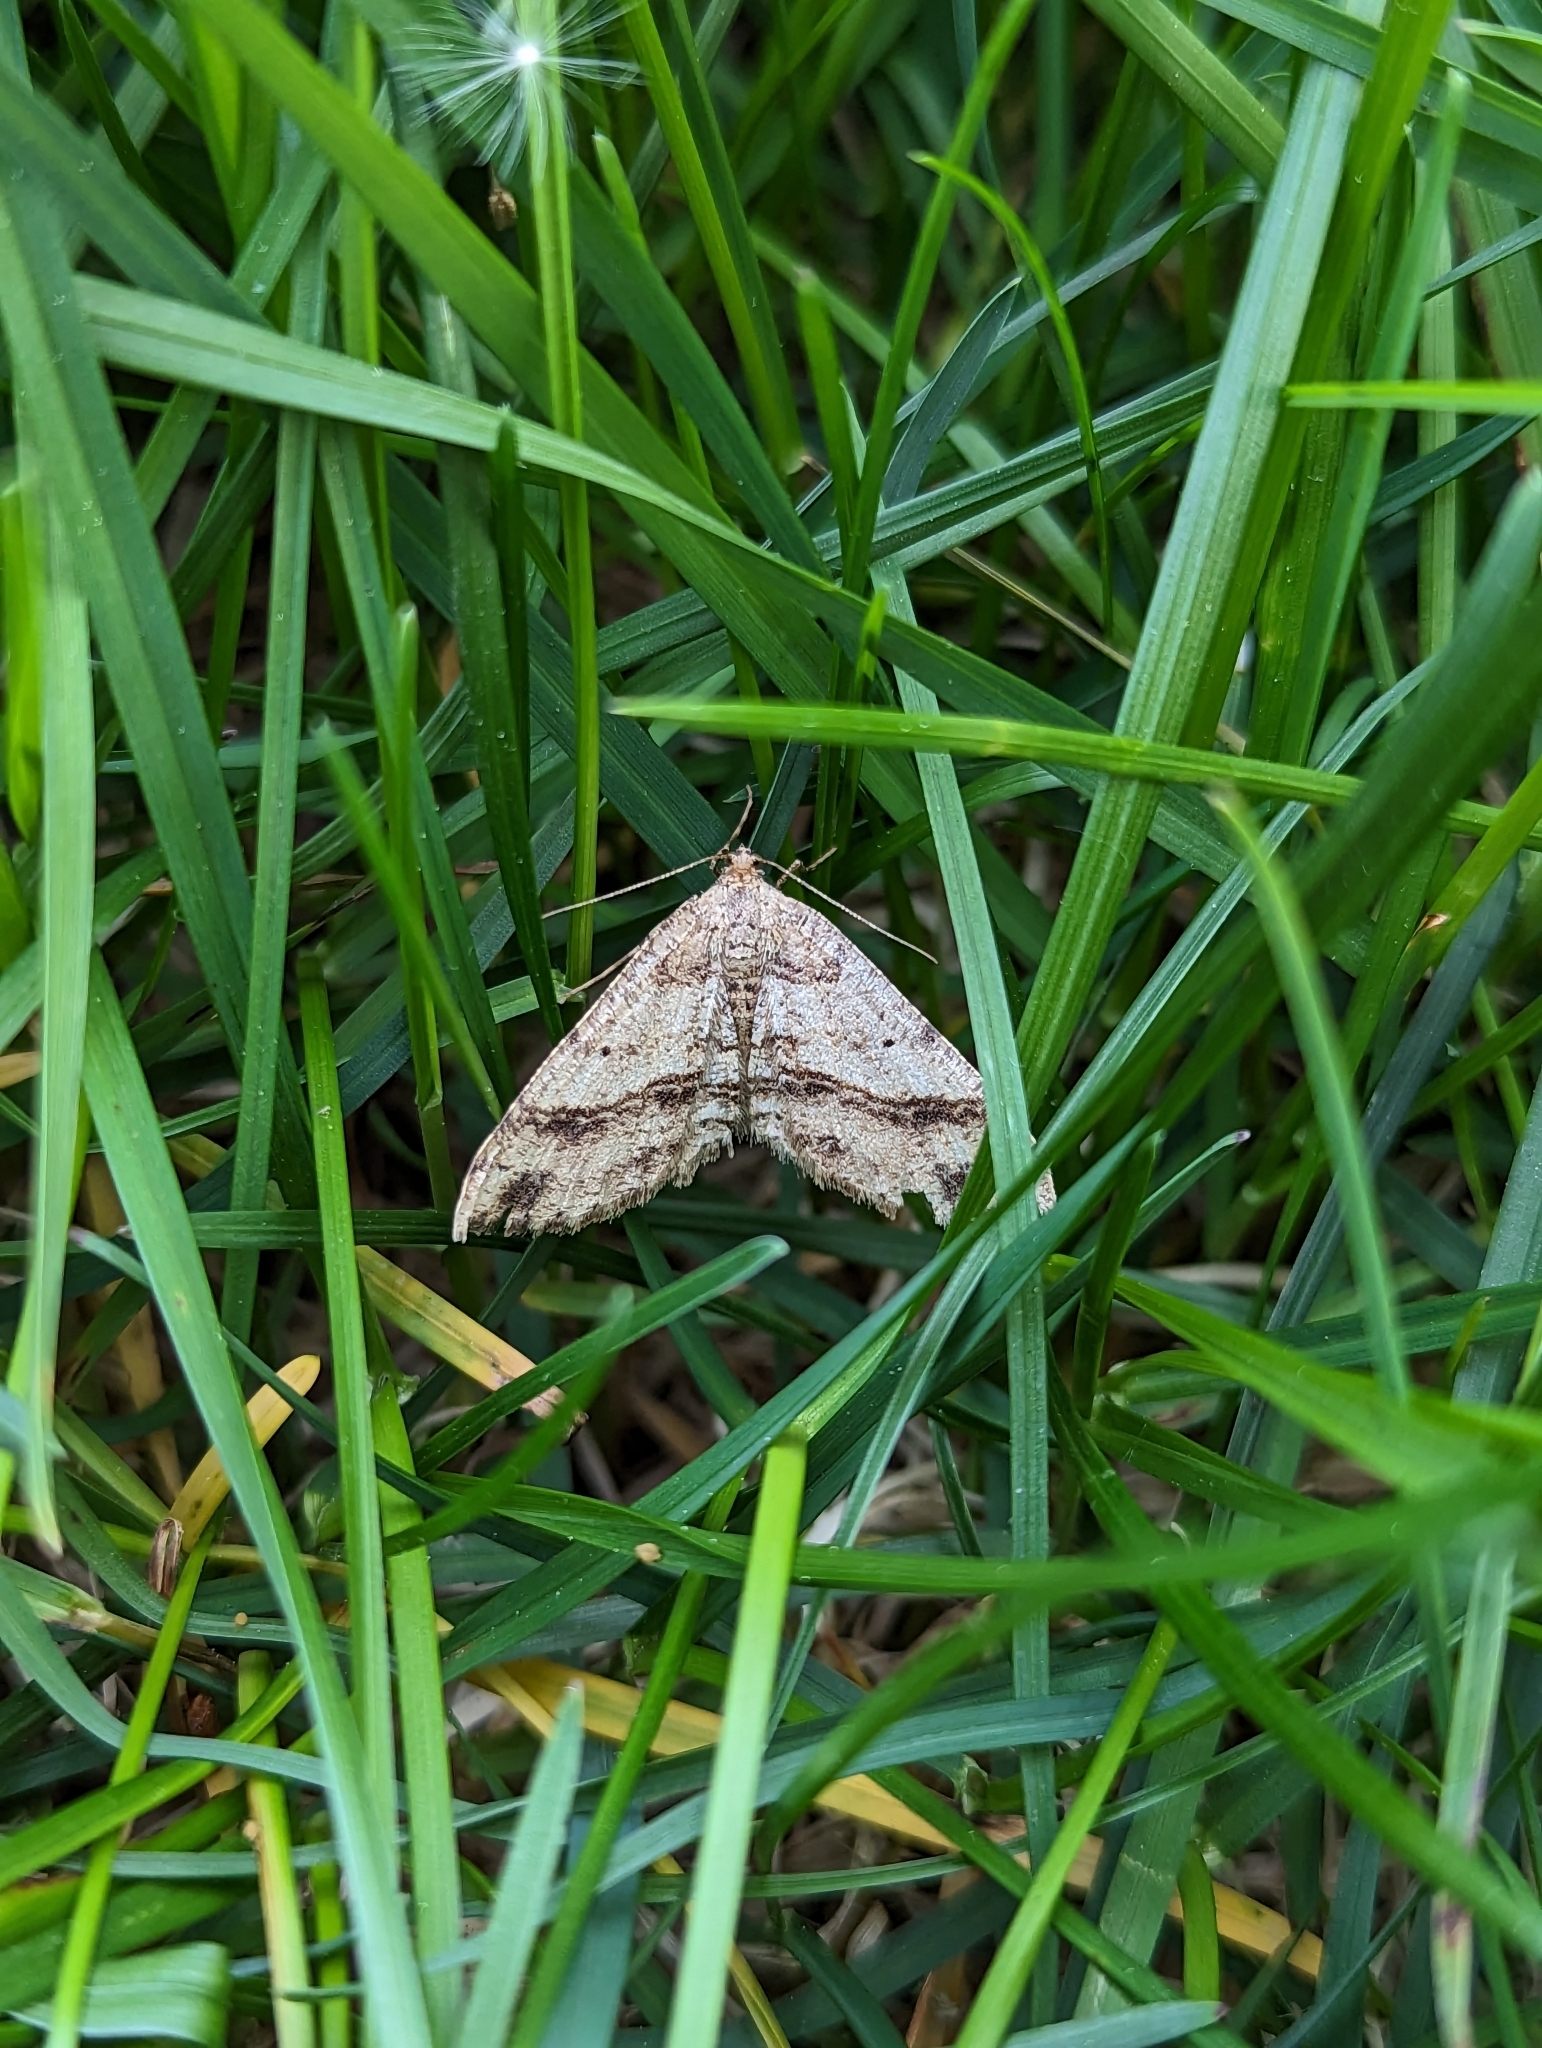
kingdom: Animalia
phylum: Arthropoda
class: Insecta
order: Lepidoptera
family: Geometridae
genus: Melanolophia
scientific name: Melanolophia signataria
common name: Signate melanolophia
